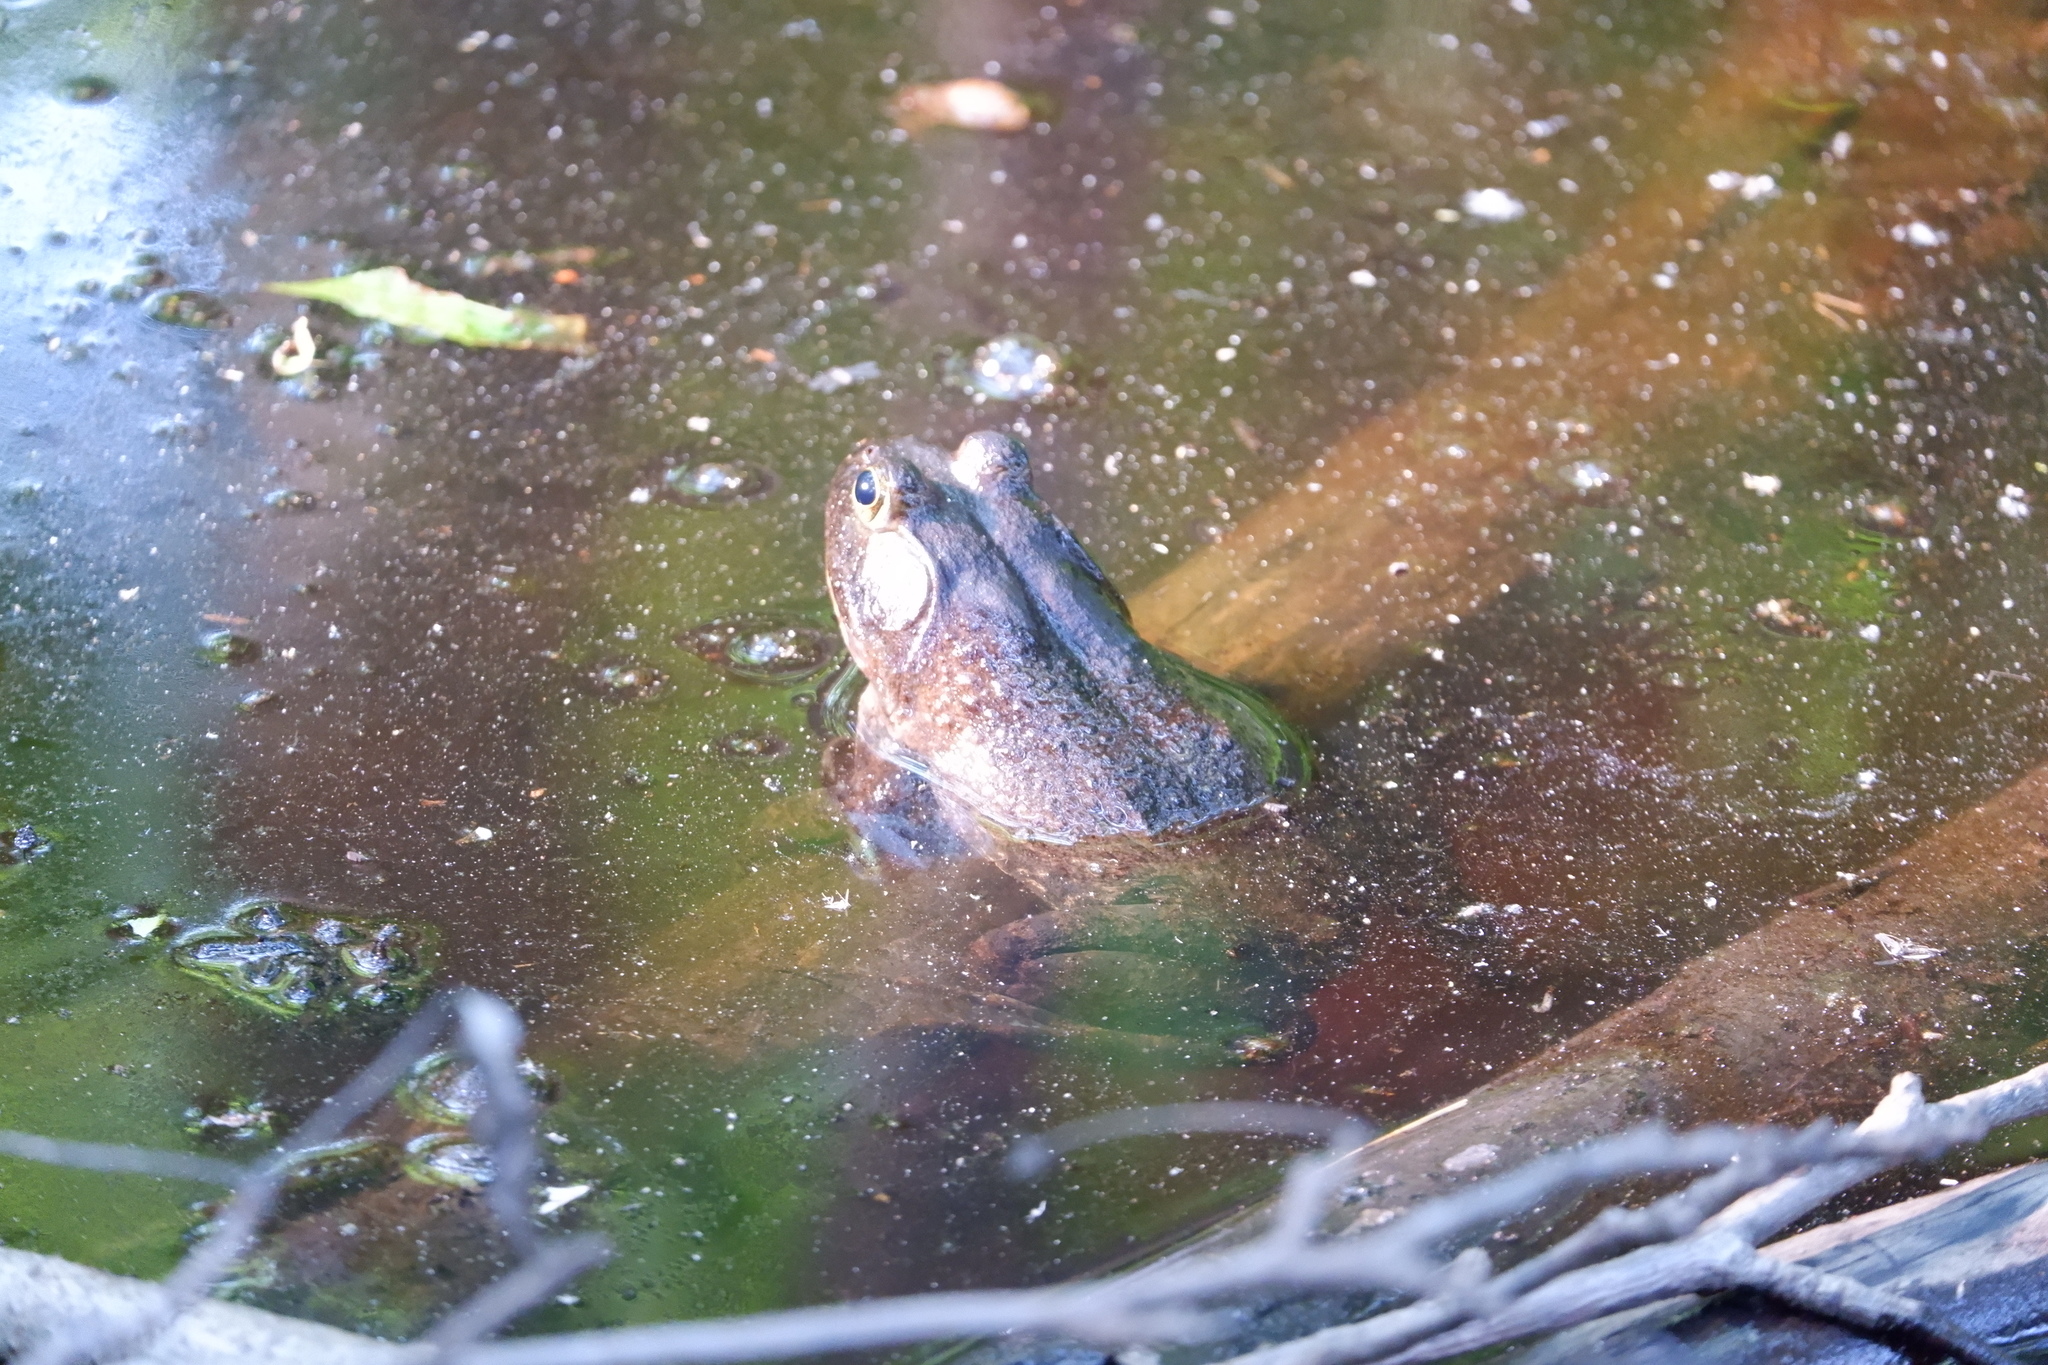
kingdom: Animalia
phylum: Chordata
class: Amphibia
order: Anura
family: Ranidae
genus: Lithobates
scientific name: Lithobates catesbeianus
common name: American bullfrog
